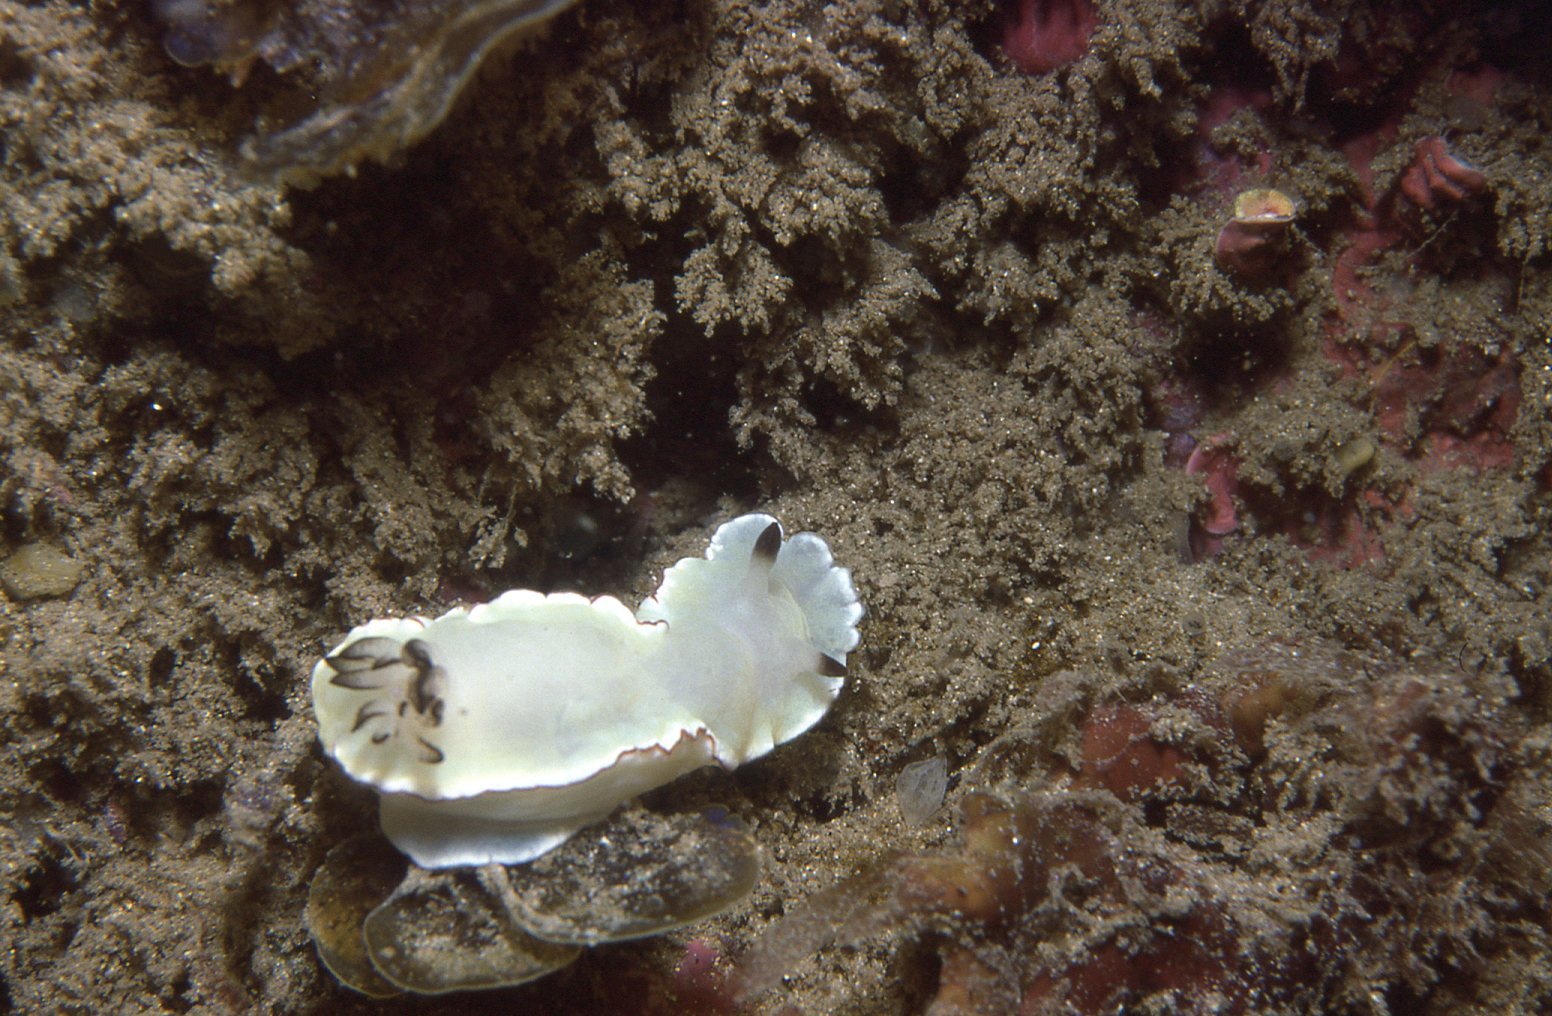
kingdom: Animalia
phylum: Mollusca
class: Gastropoda
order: Nudibranchia
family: Chromodorididae
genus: Glossodoris
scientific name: Glossodoris angasi
